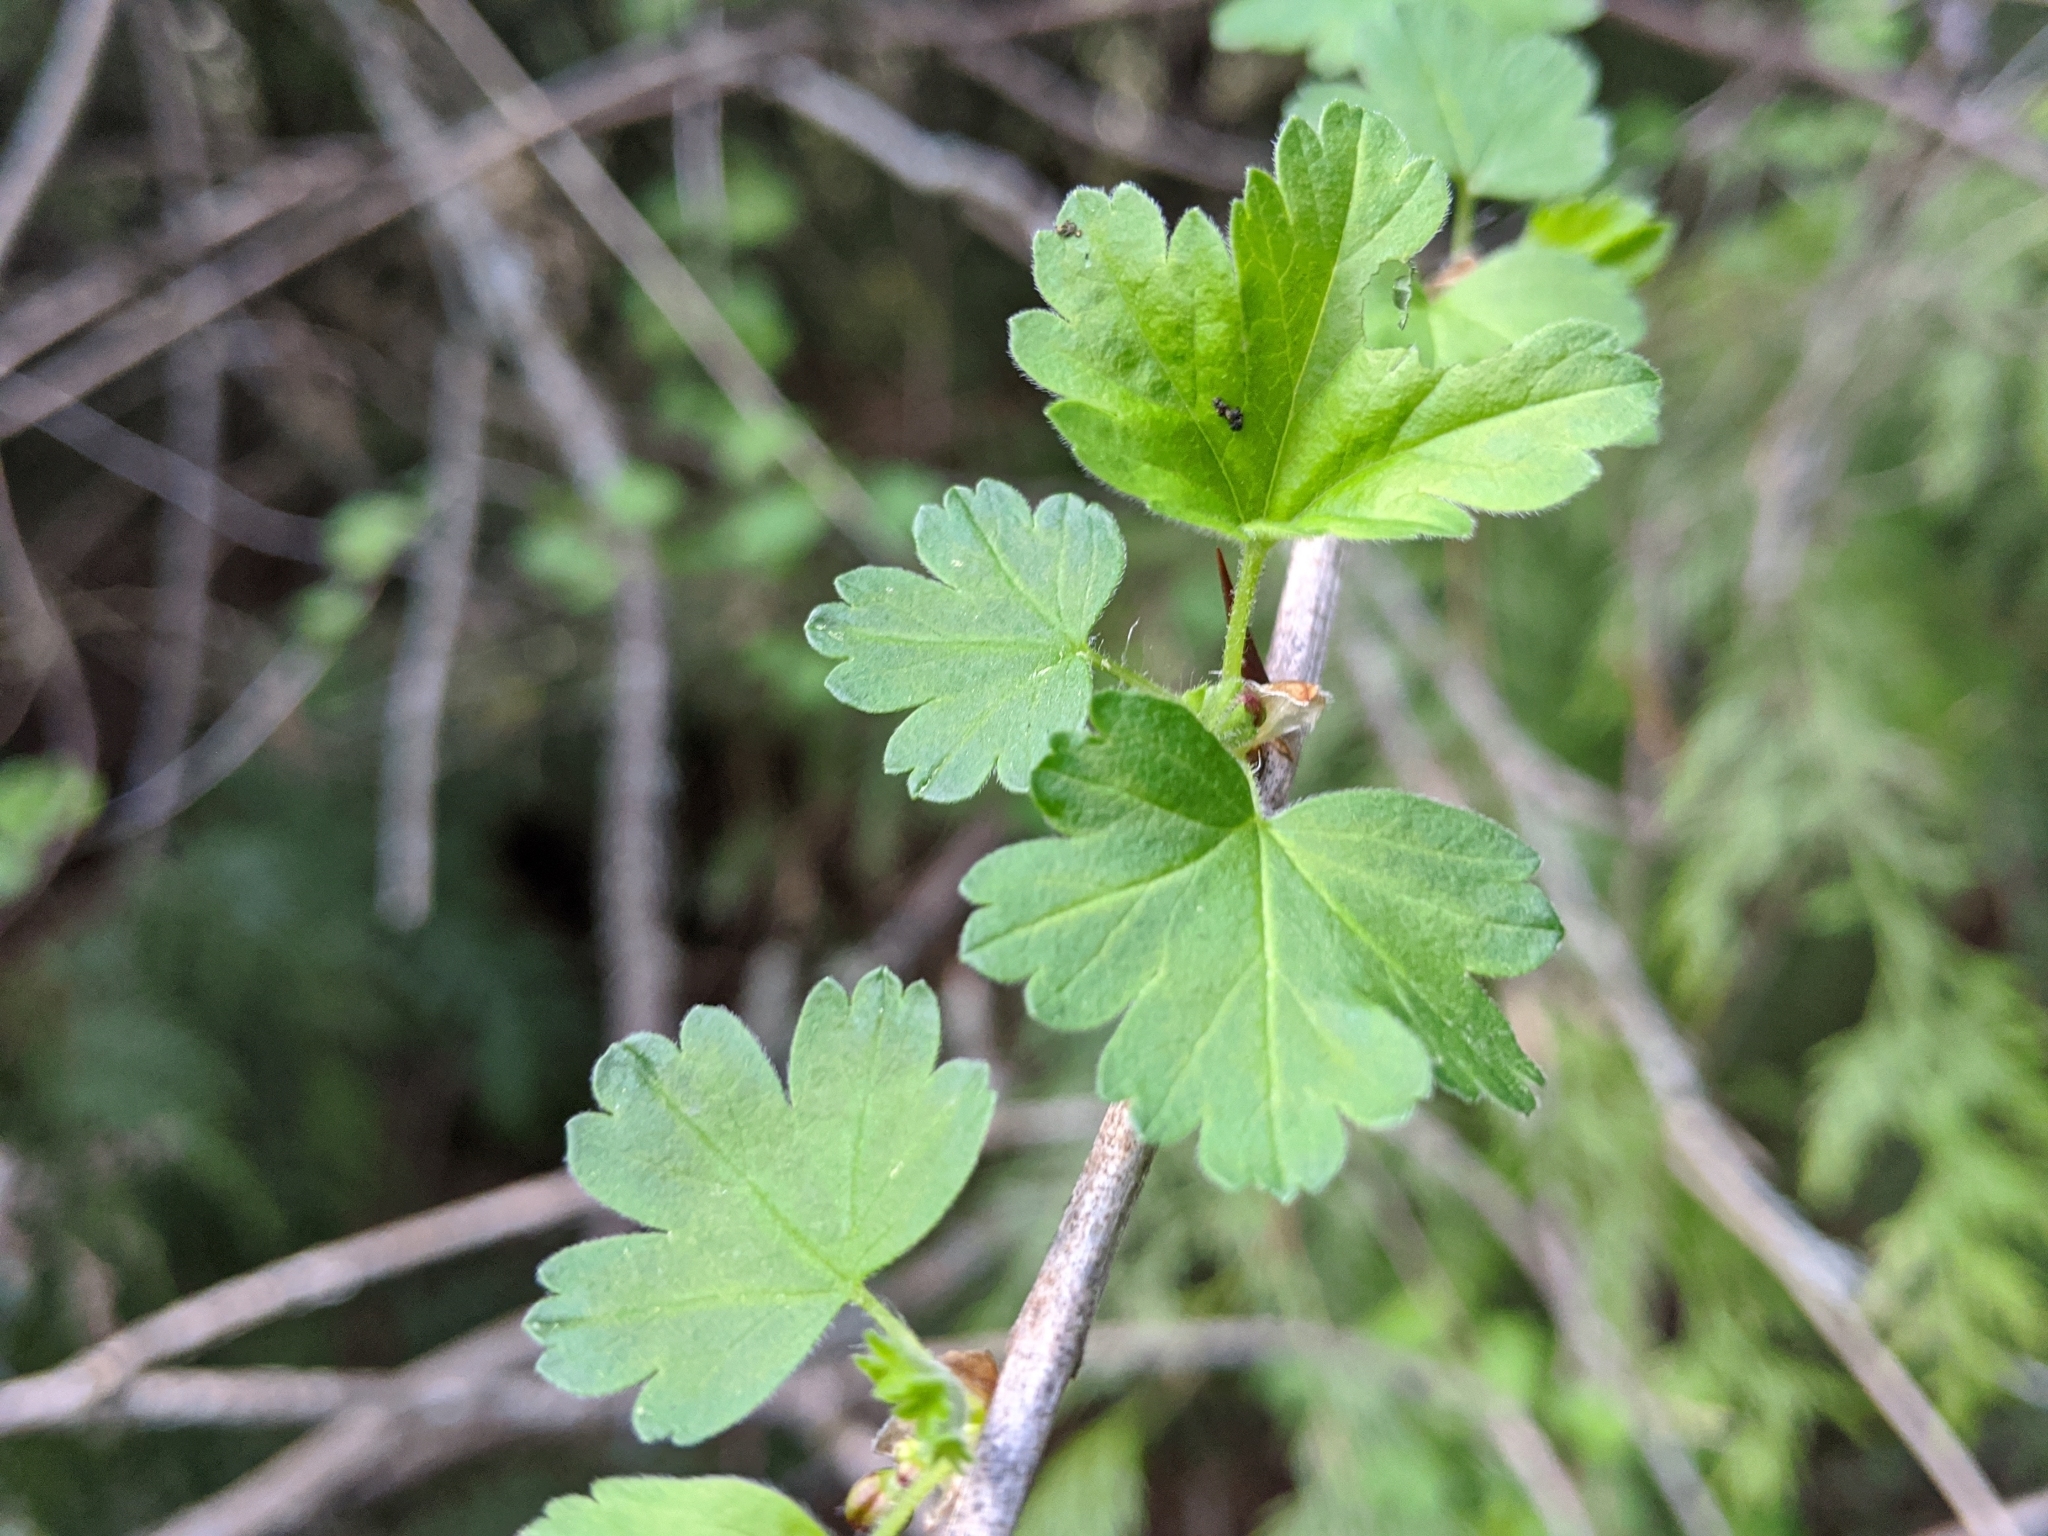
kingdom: Plantae
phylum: Tracheophyta
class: Magnoliopsida
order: Saxifragales
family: Grossulariaceae
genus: Ribes
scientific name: Ribes divaricatum
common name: Wild black gooseberry
